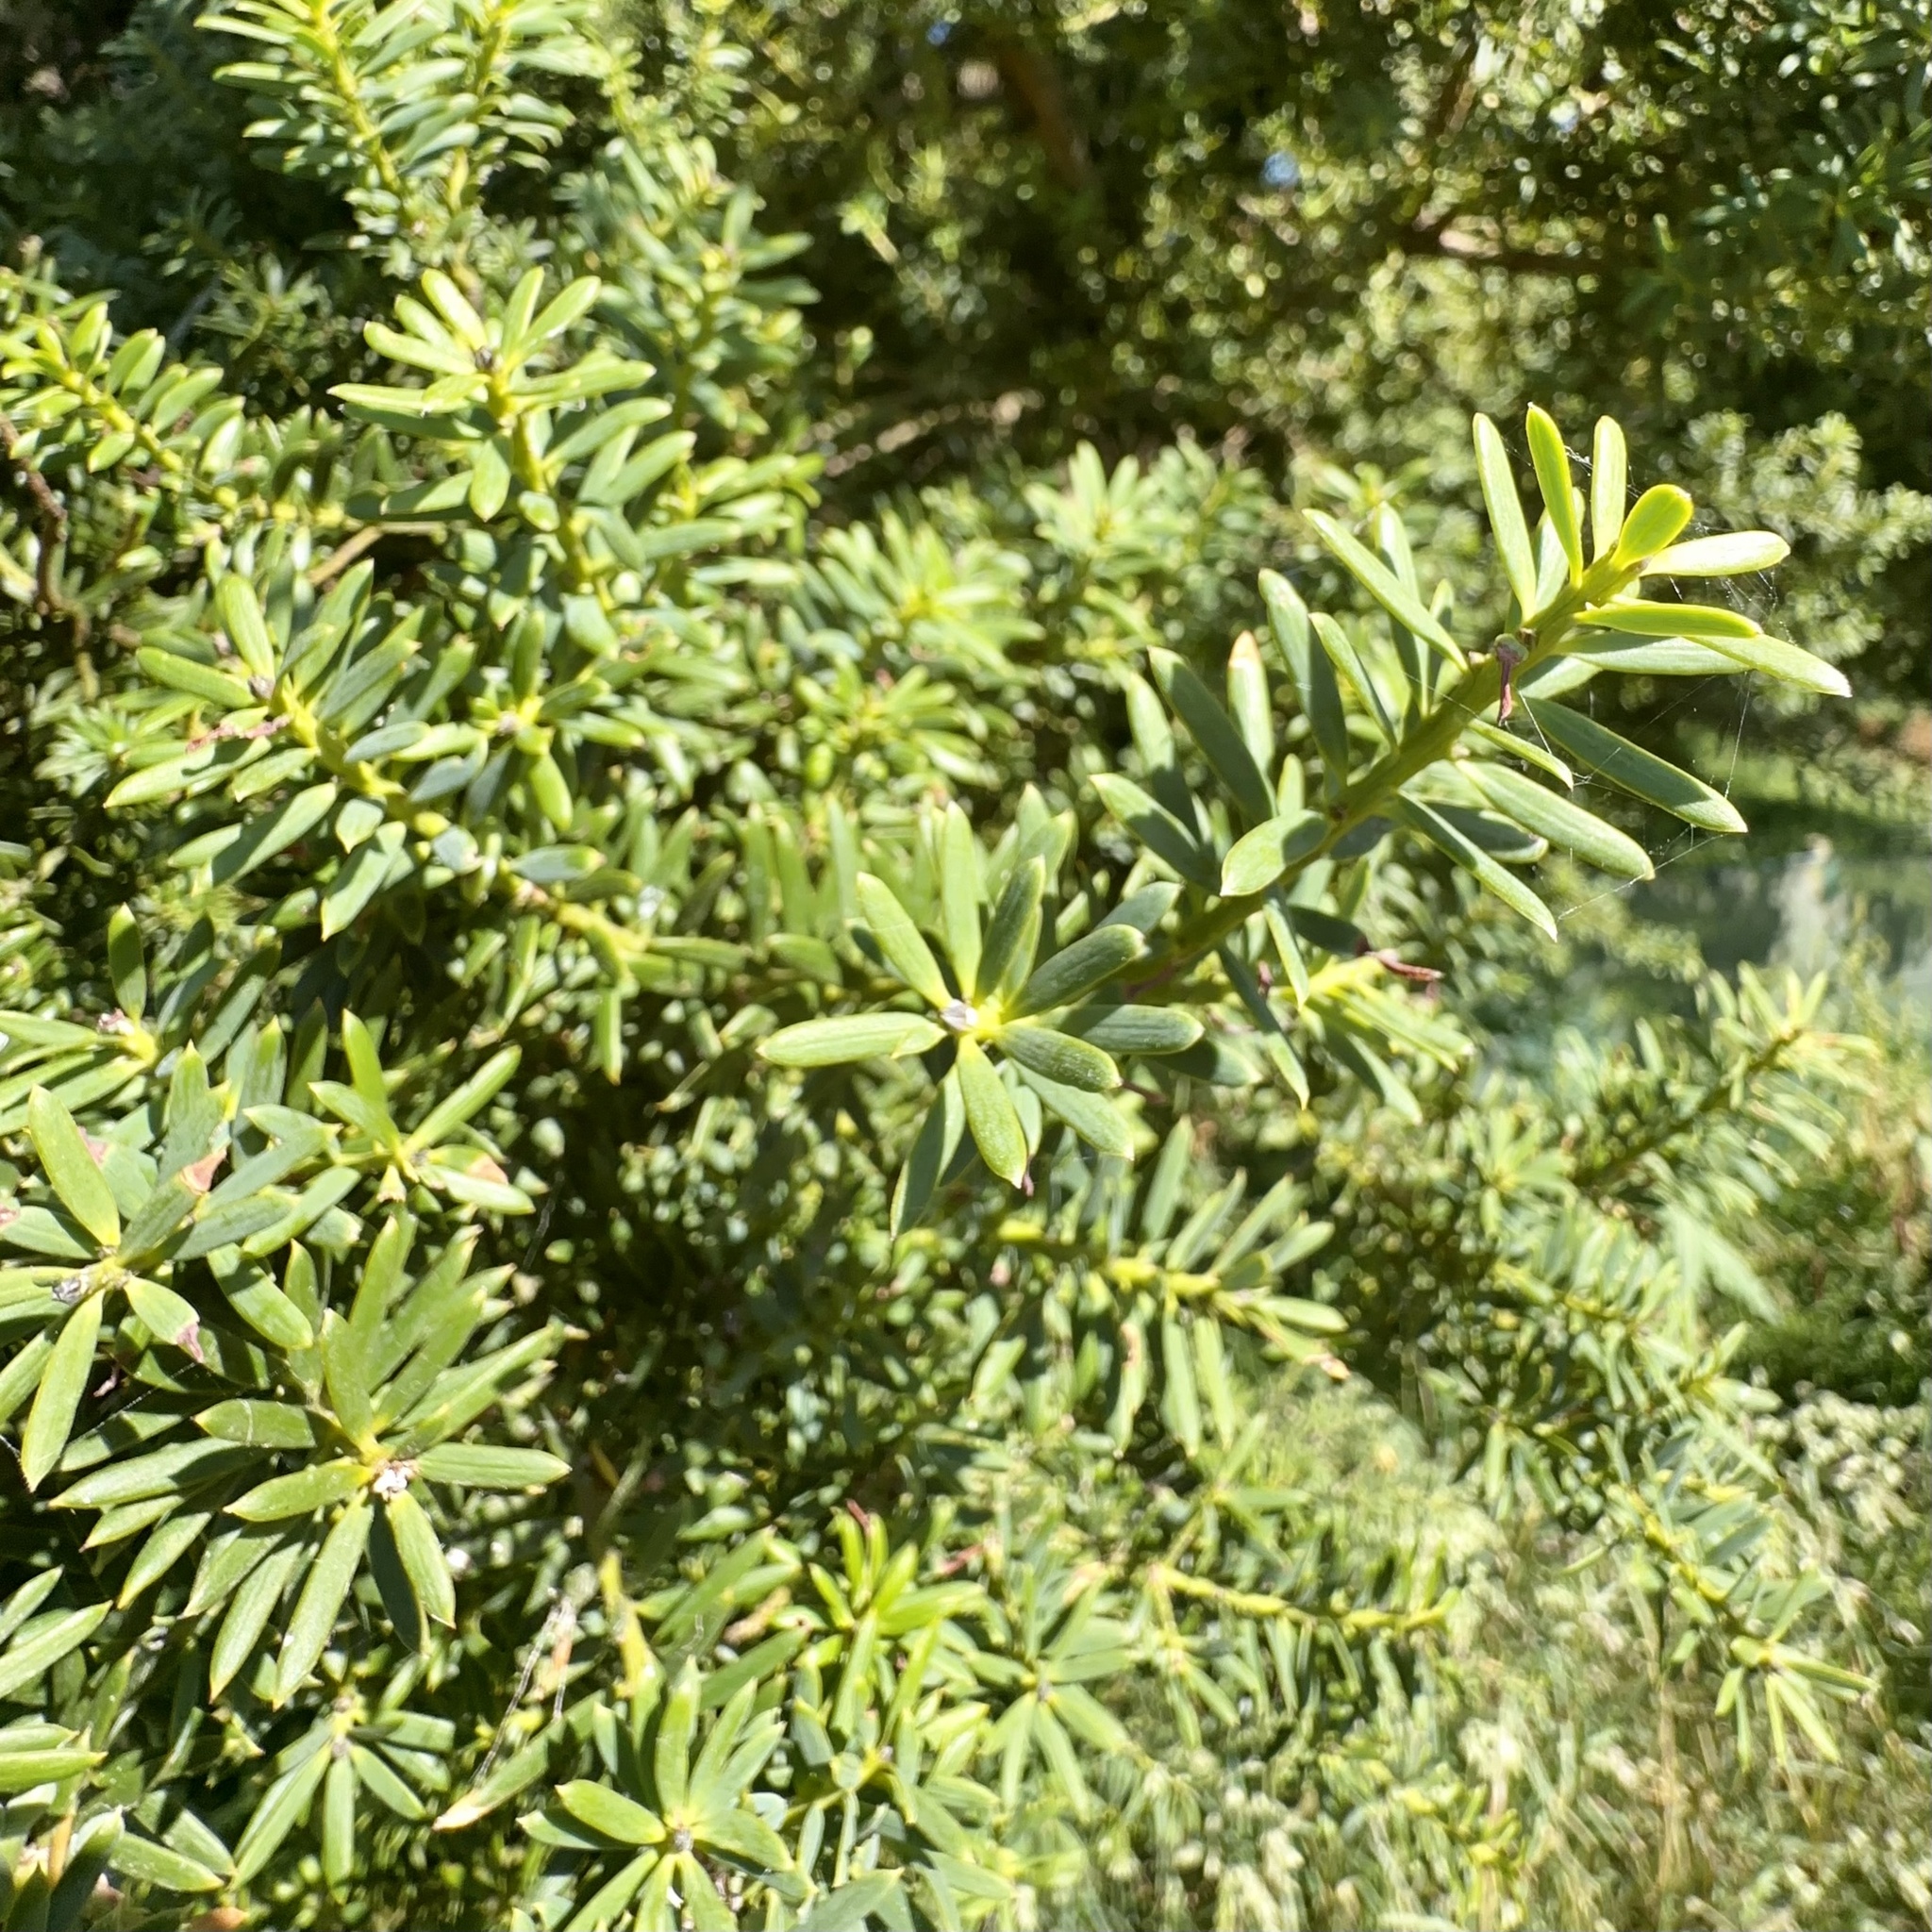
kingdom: Plantae
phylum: Tracheophyta
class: Pinopsida
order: Pinales
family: Podocarpaceae
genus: Podocarpus
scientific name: Podocarpus totara
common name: Totara
